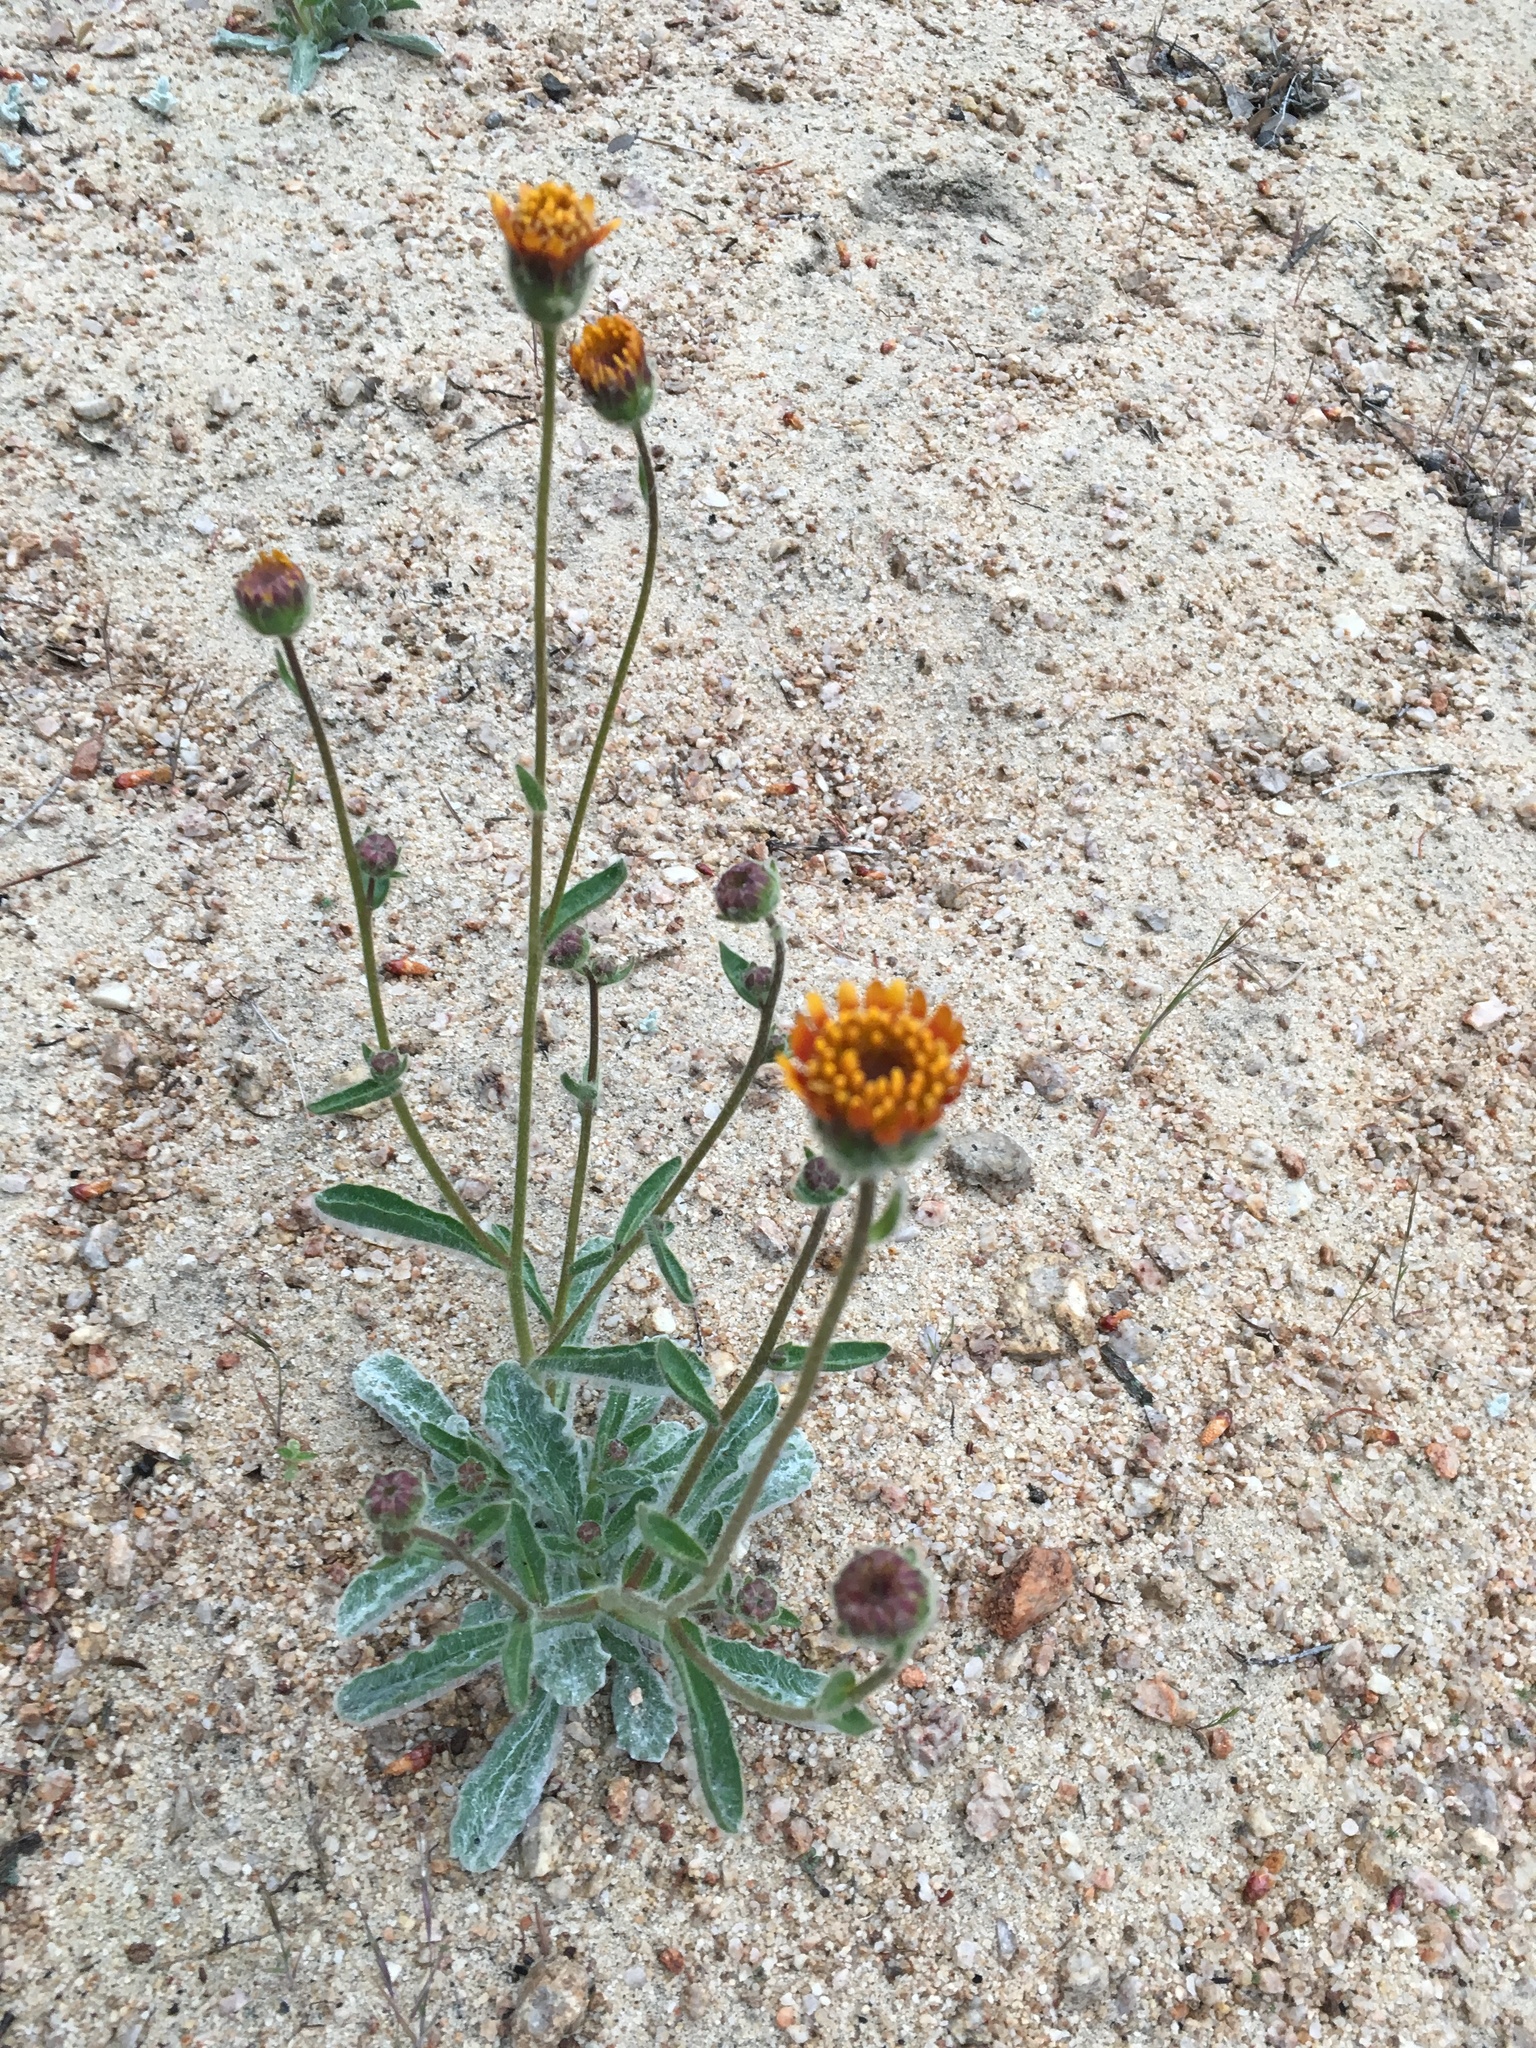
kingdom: Plantae
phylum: Tracheophyta
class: Magnoliopsida
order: Asterales
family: Asteraceae
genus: Hulsea
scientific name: Hulsea vestita
